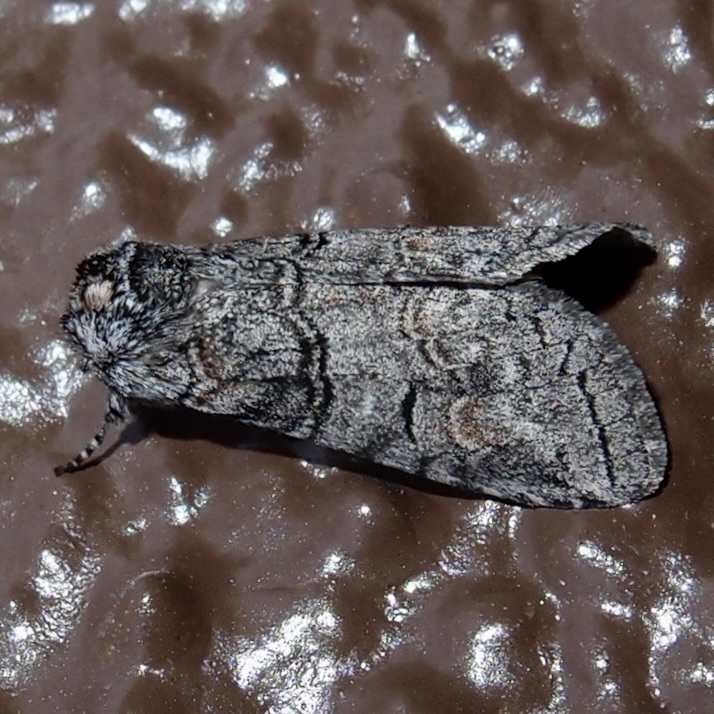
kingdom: Animalia
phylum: Arthropoda
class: Insecta
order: Lepidoptera
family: Notodontidae
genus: Afilia
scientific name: Afilia oslari
